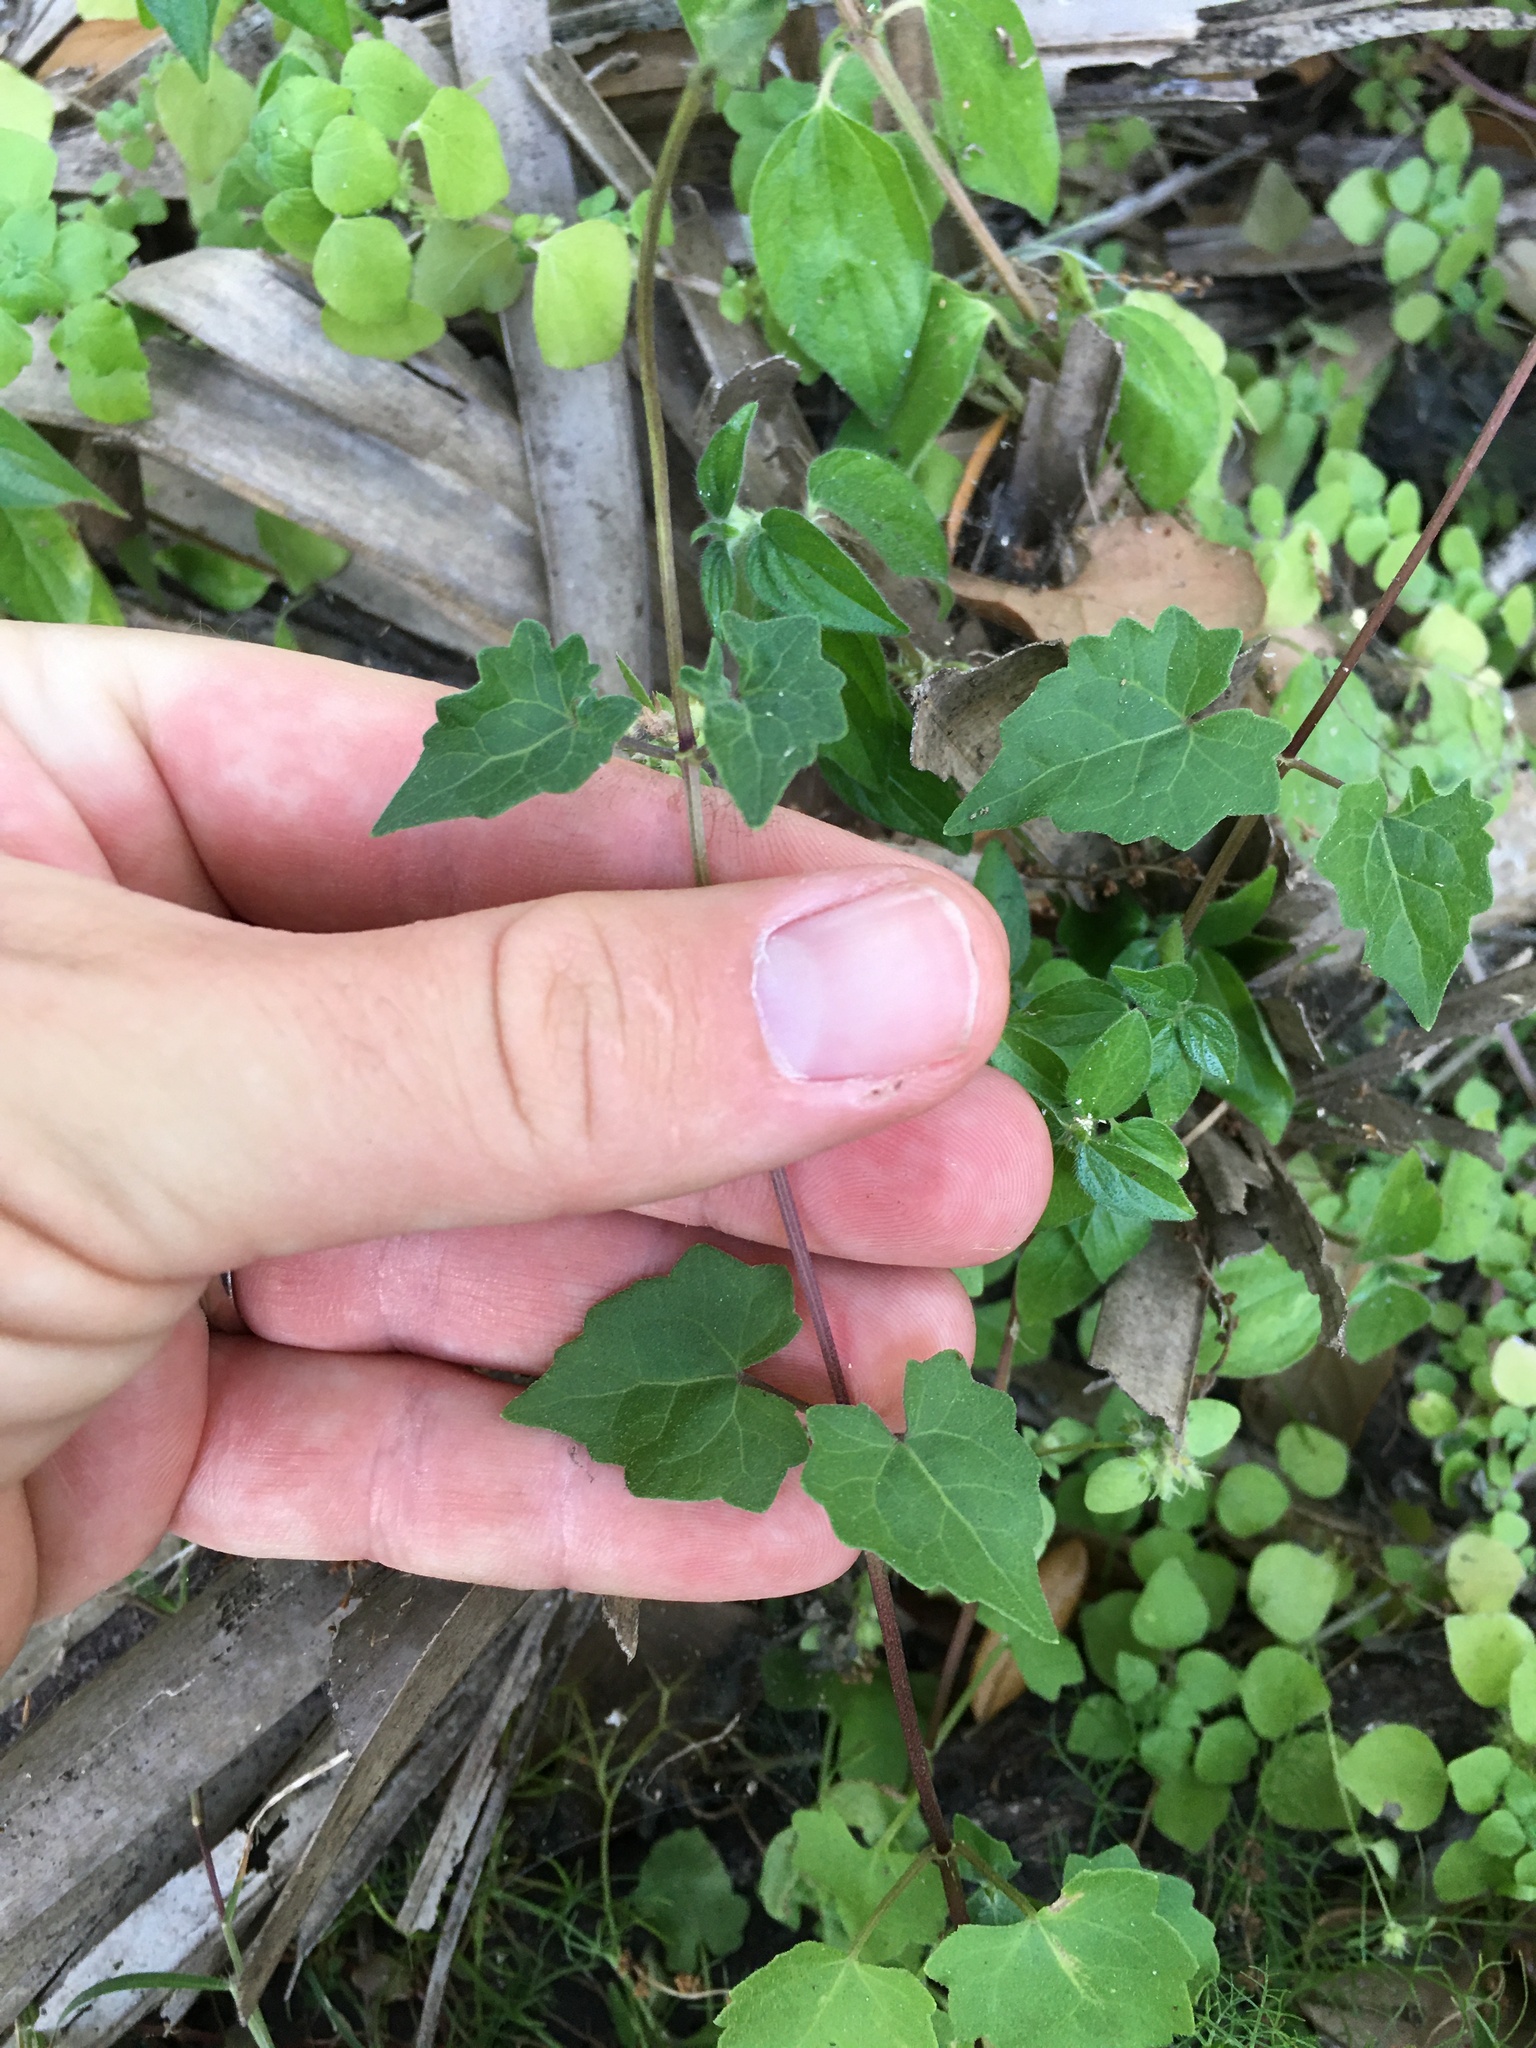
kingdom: Plantae
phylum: Tracheophyta
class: Magnoliopsida
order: Asterales
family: Asteraceae
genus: Mikania
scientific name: Mikania scandens
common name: Climbing hempvine
